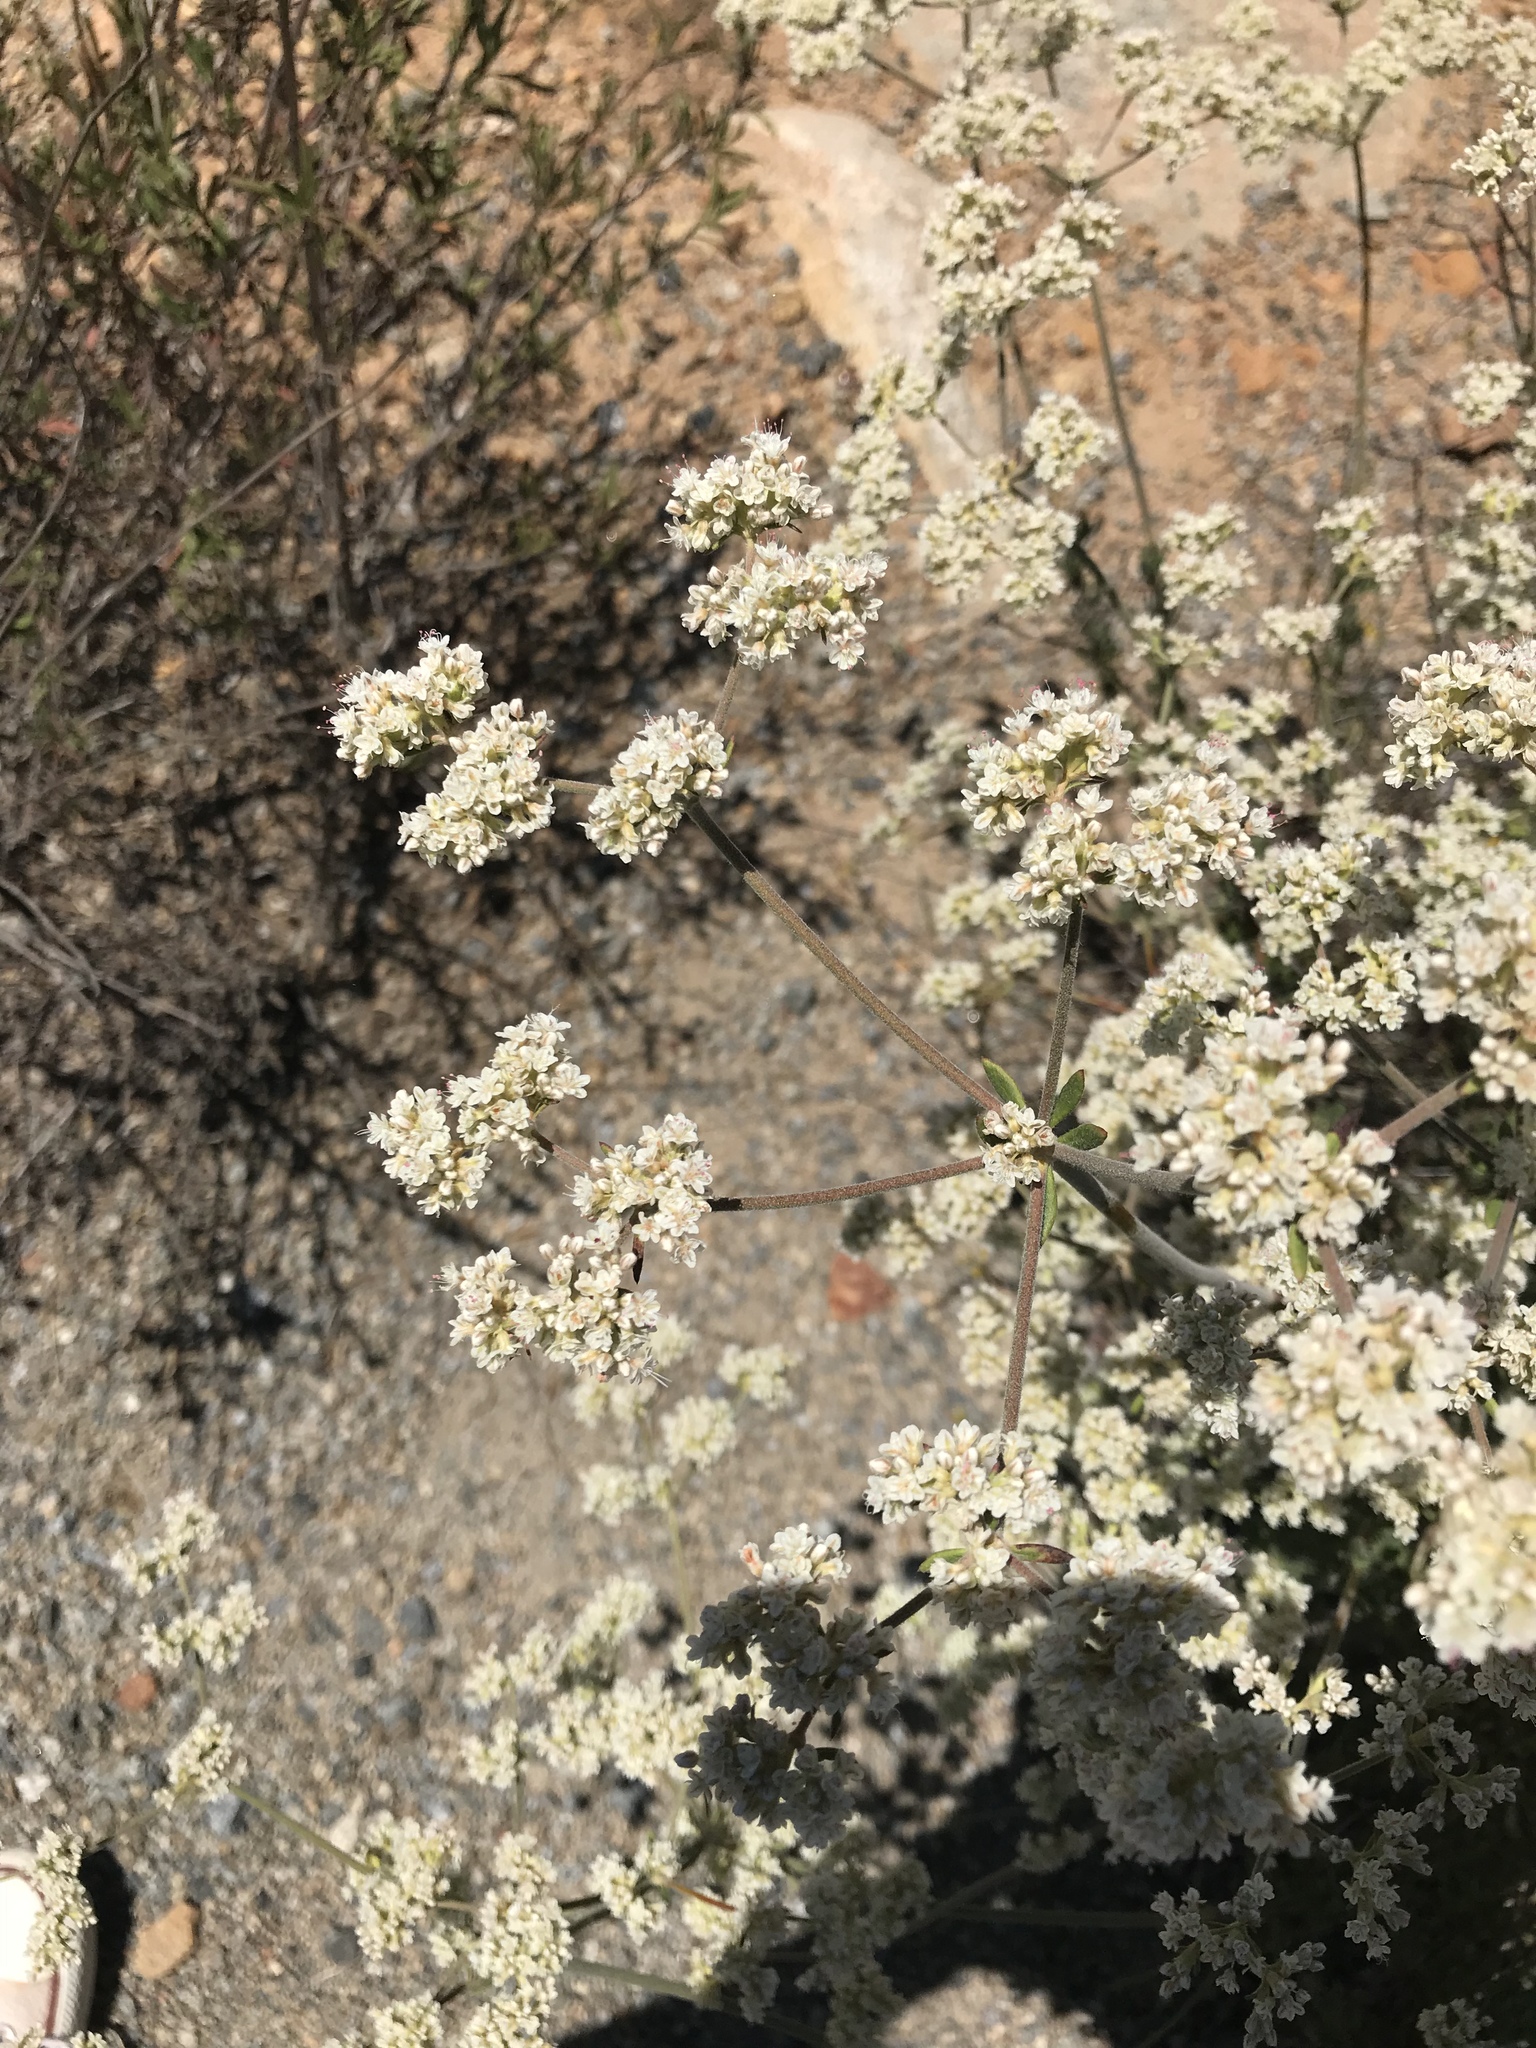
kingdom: Plantae
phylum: Tracheophyta
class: Magnoliopsida
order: Caryophyllales
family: Polygonaceae
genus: Eriogonum
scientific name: Eriogonum fasciculatum
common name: California wild buckwheat
